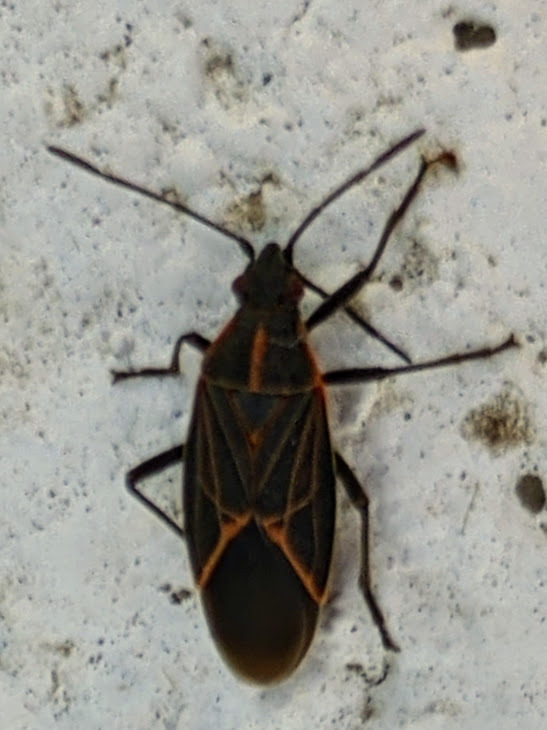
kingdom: Animalia
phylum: Arthropoda
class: Insecta
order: Hemiptera
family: Rhopalidae
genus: Boisea
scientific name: Boisea rubrolineata
